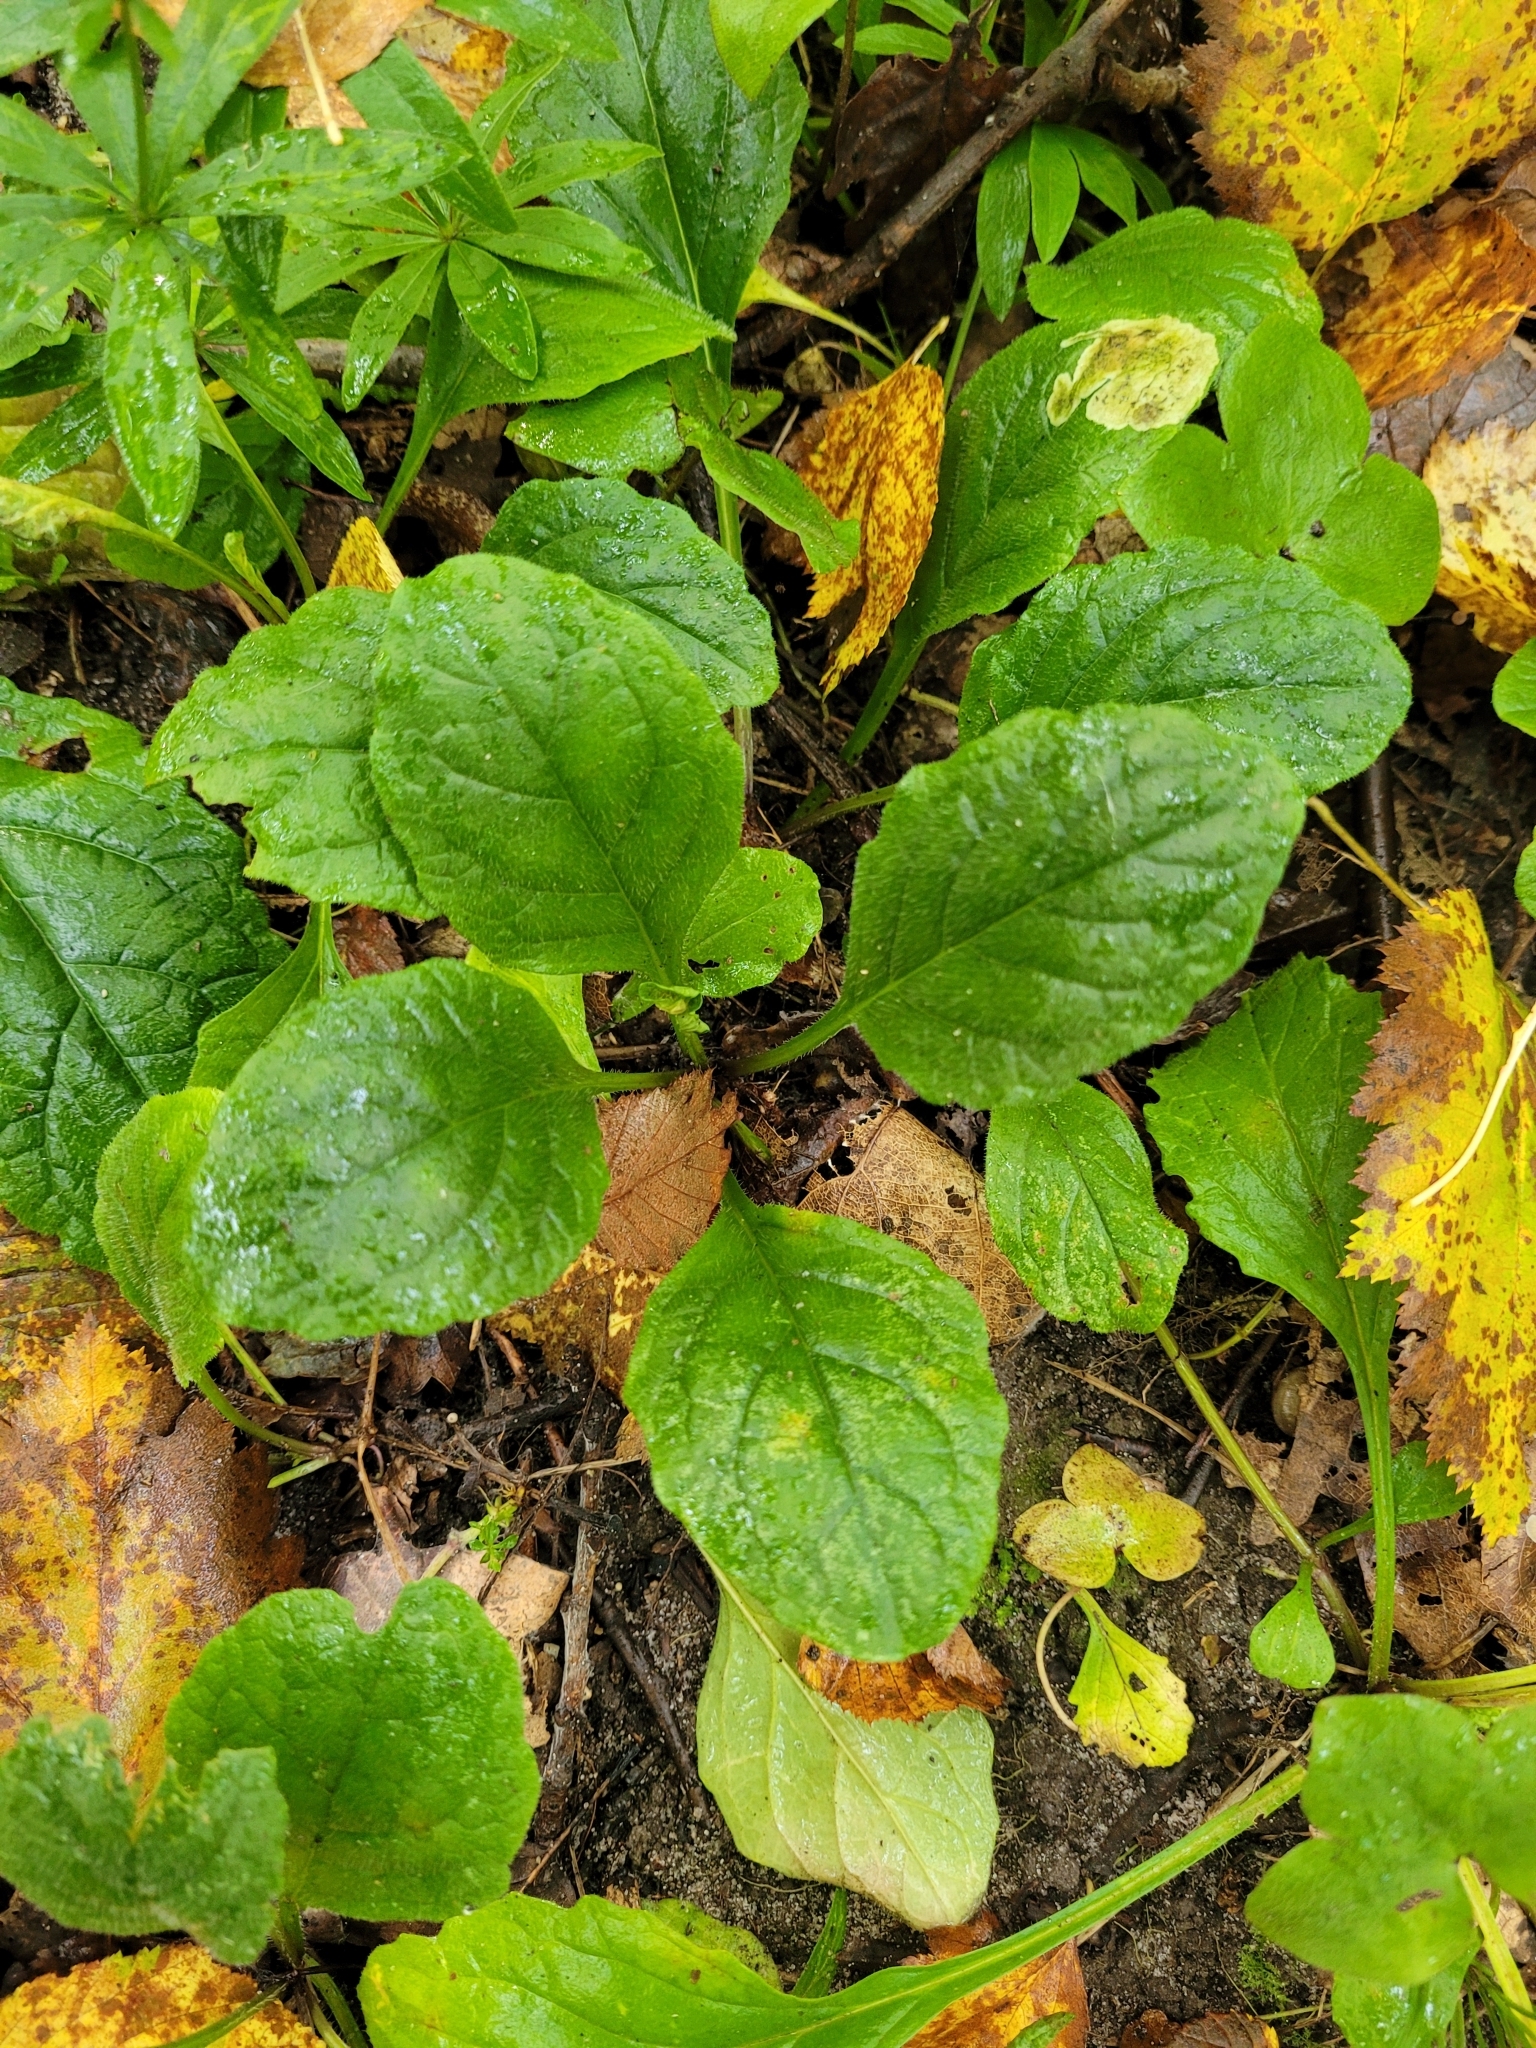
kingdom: Plantae
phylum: Tracheophyta
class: Magnoliopsida
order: Lamiales
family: Lamiaceae
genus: Ajuga
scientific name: Ajuga reptans
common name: Bugle
